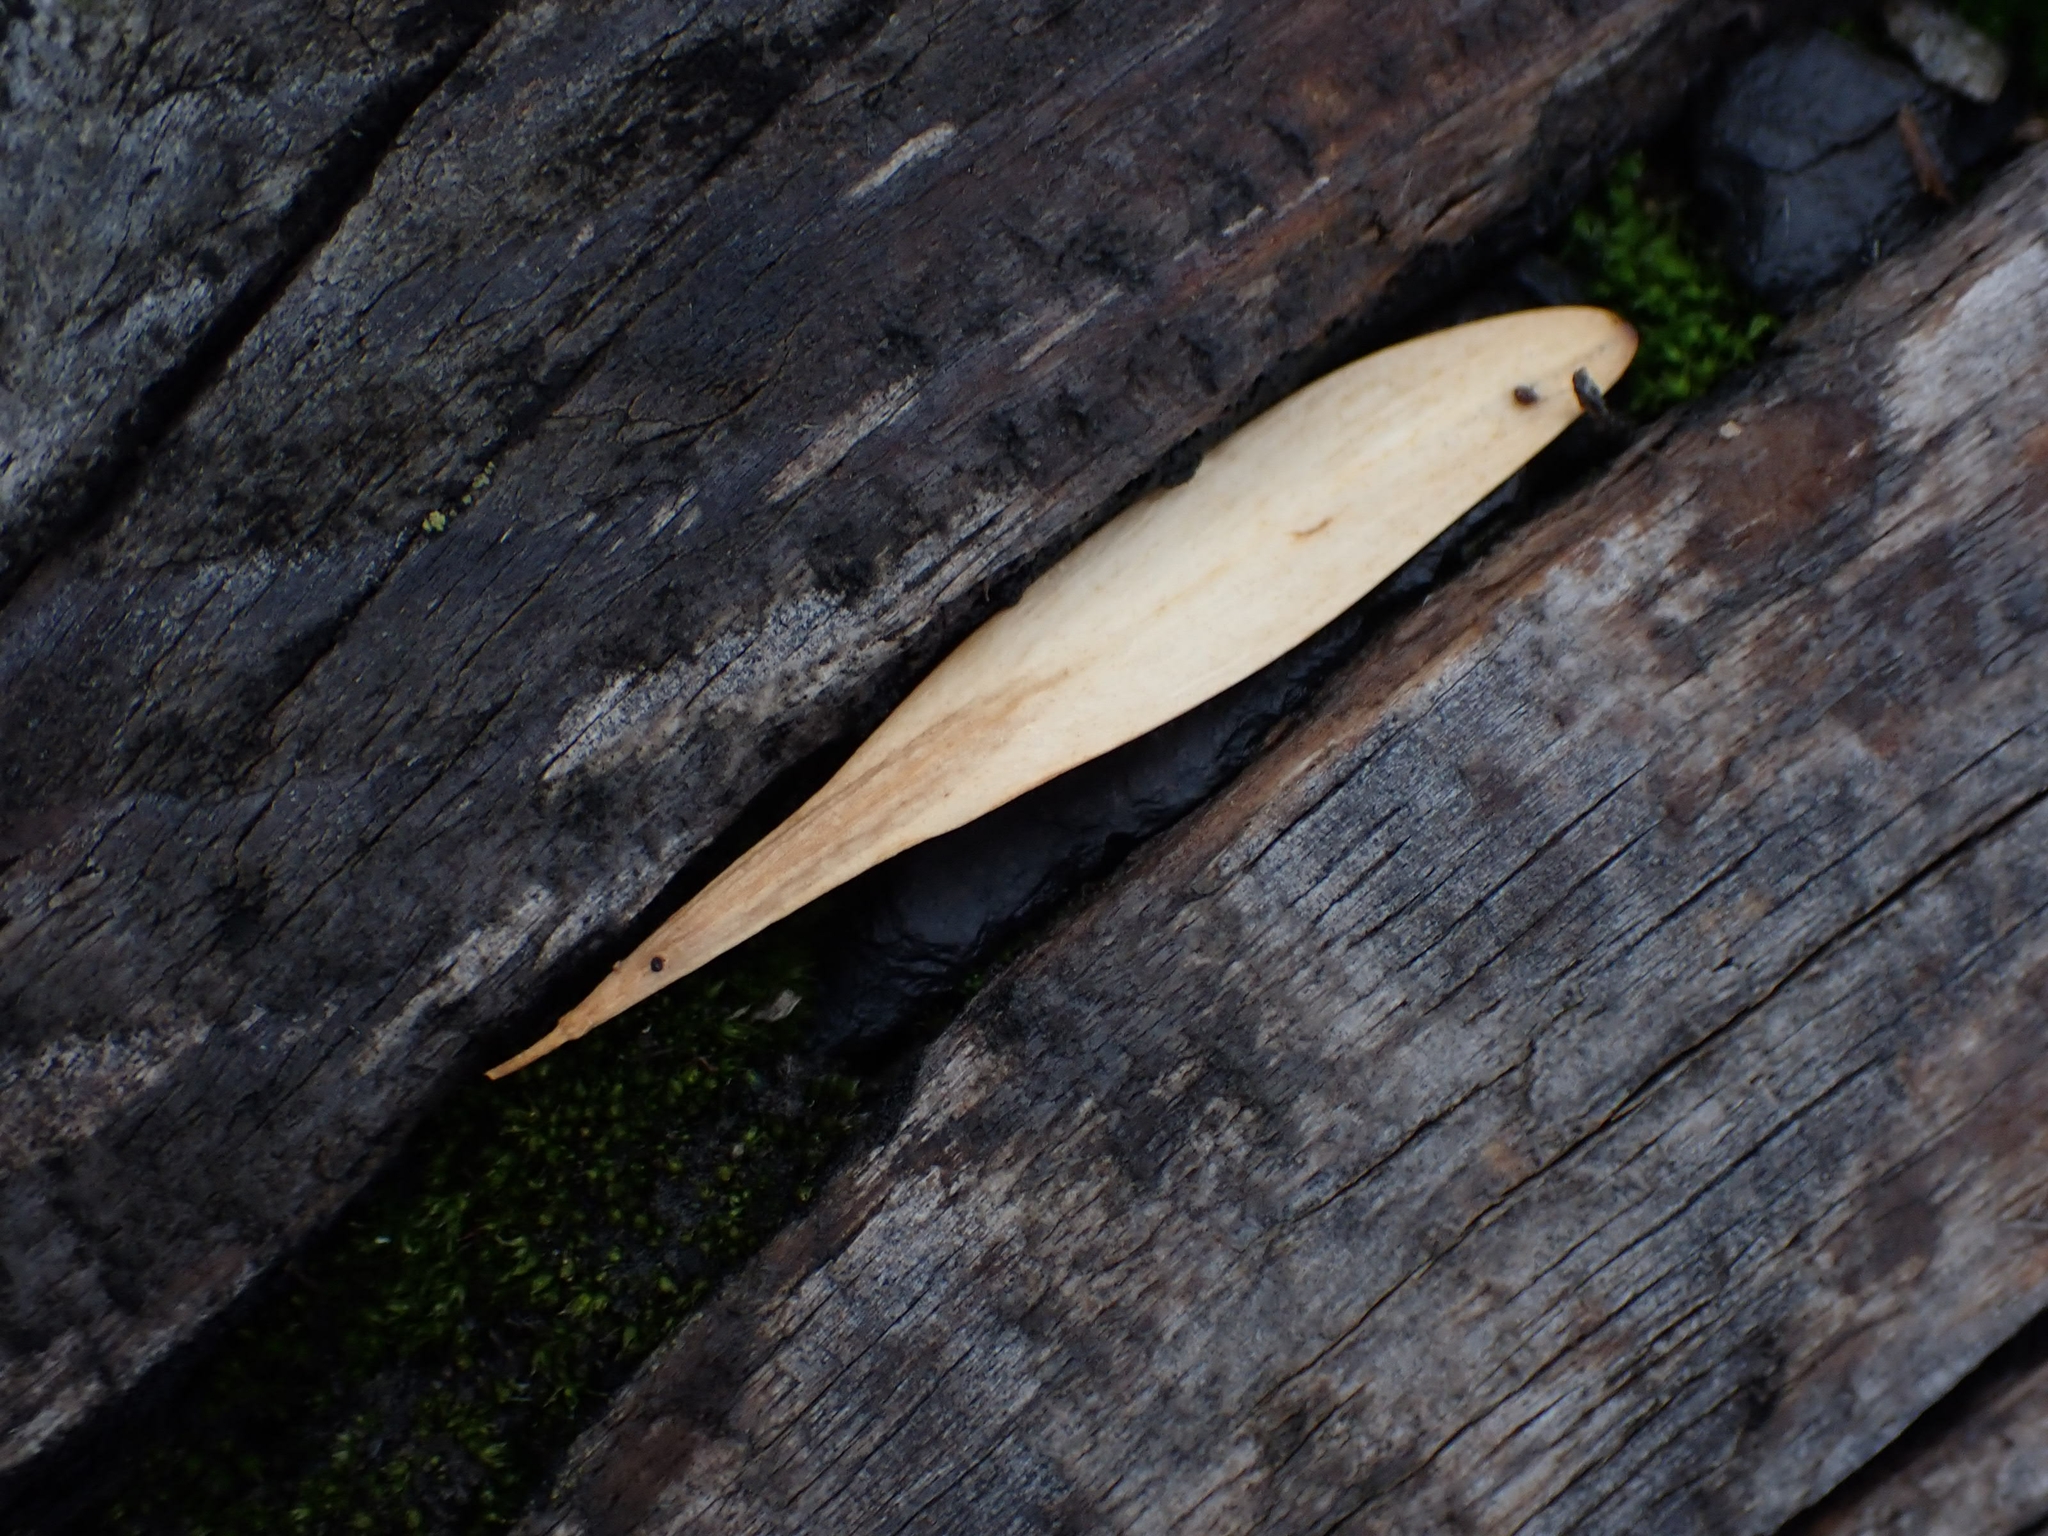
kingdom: Plantae
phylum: Tracheophyta
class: Magnoliopsida
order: Lamiales
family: Oleaceae
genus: Fraxinus
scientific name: Fraxinus pennsylvanica
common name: Green ash
